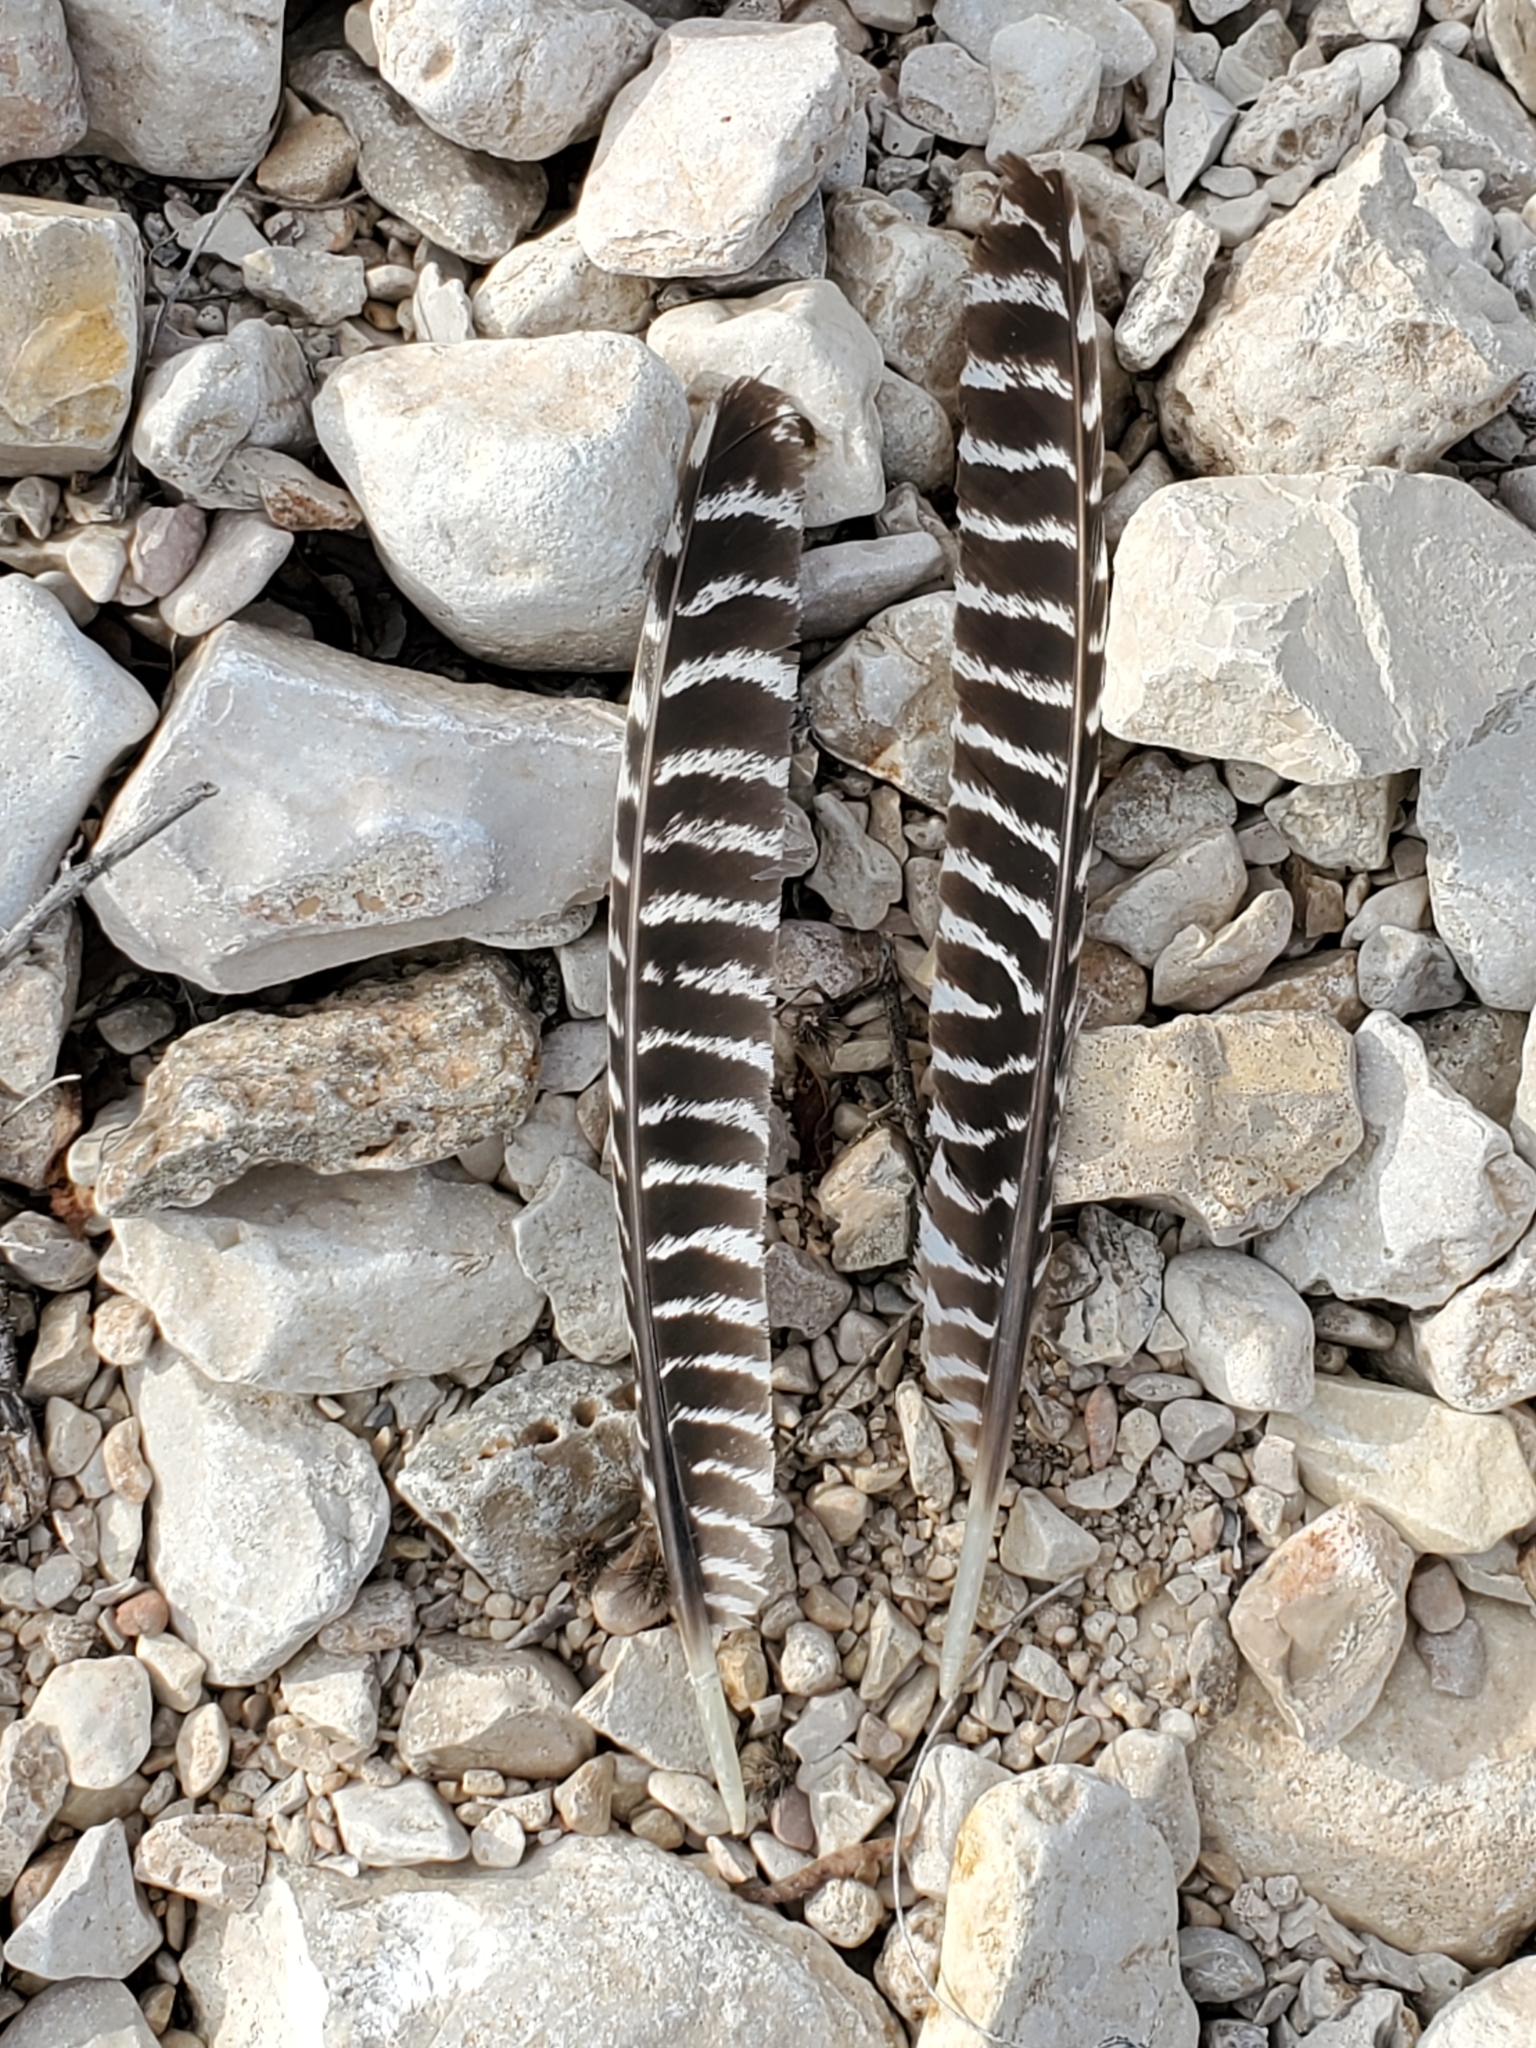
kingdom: Animalia
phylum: Chordata
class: Aves
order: Galliformes
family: Phasianidae
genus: Meleagris
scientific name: Meleagris gallopavo
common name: Wild turkey
